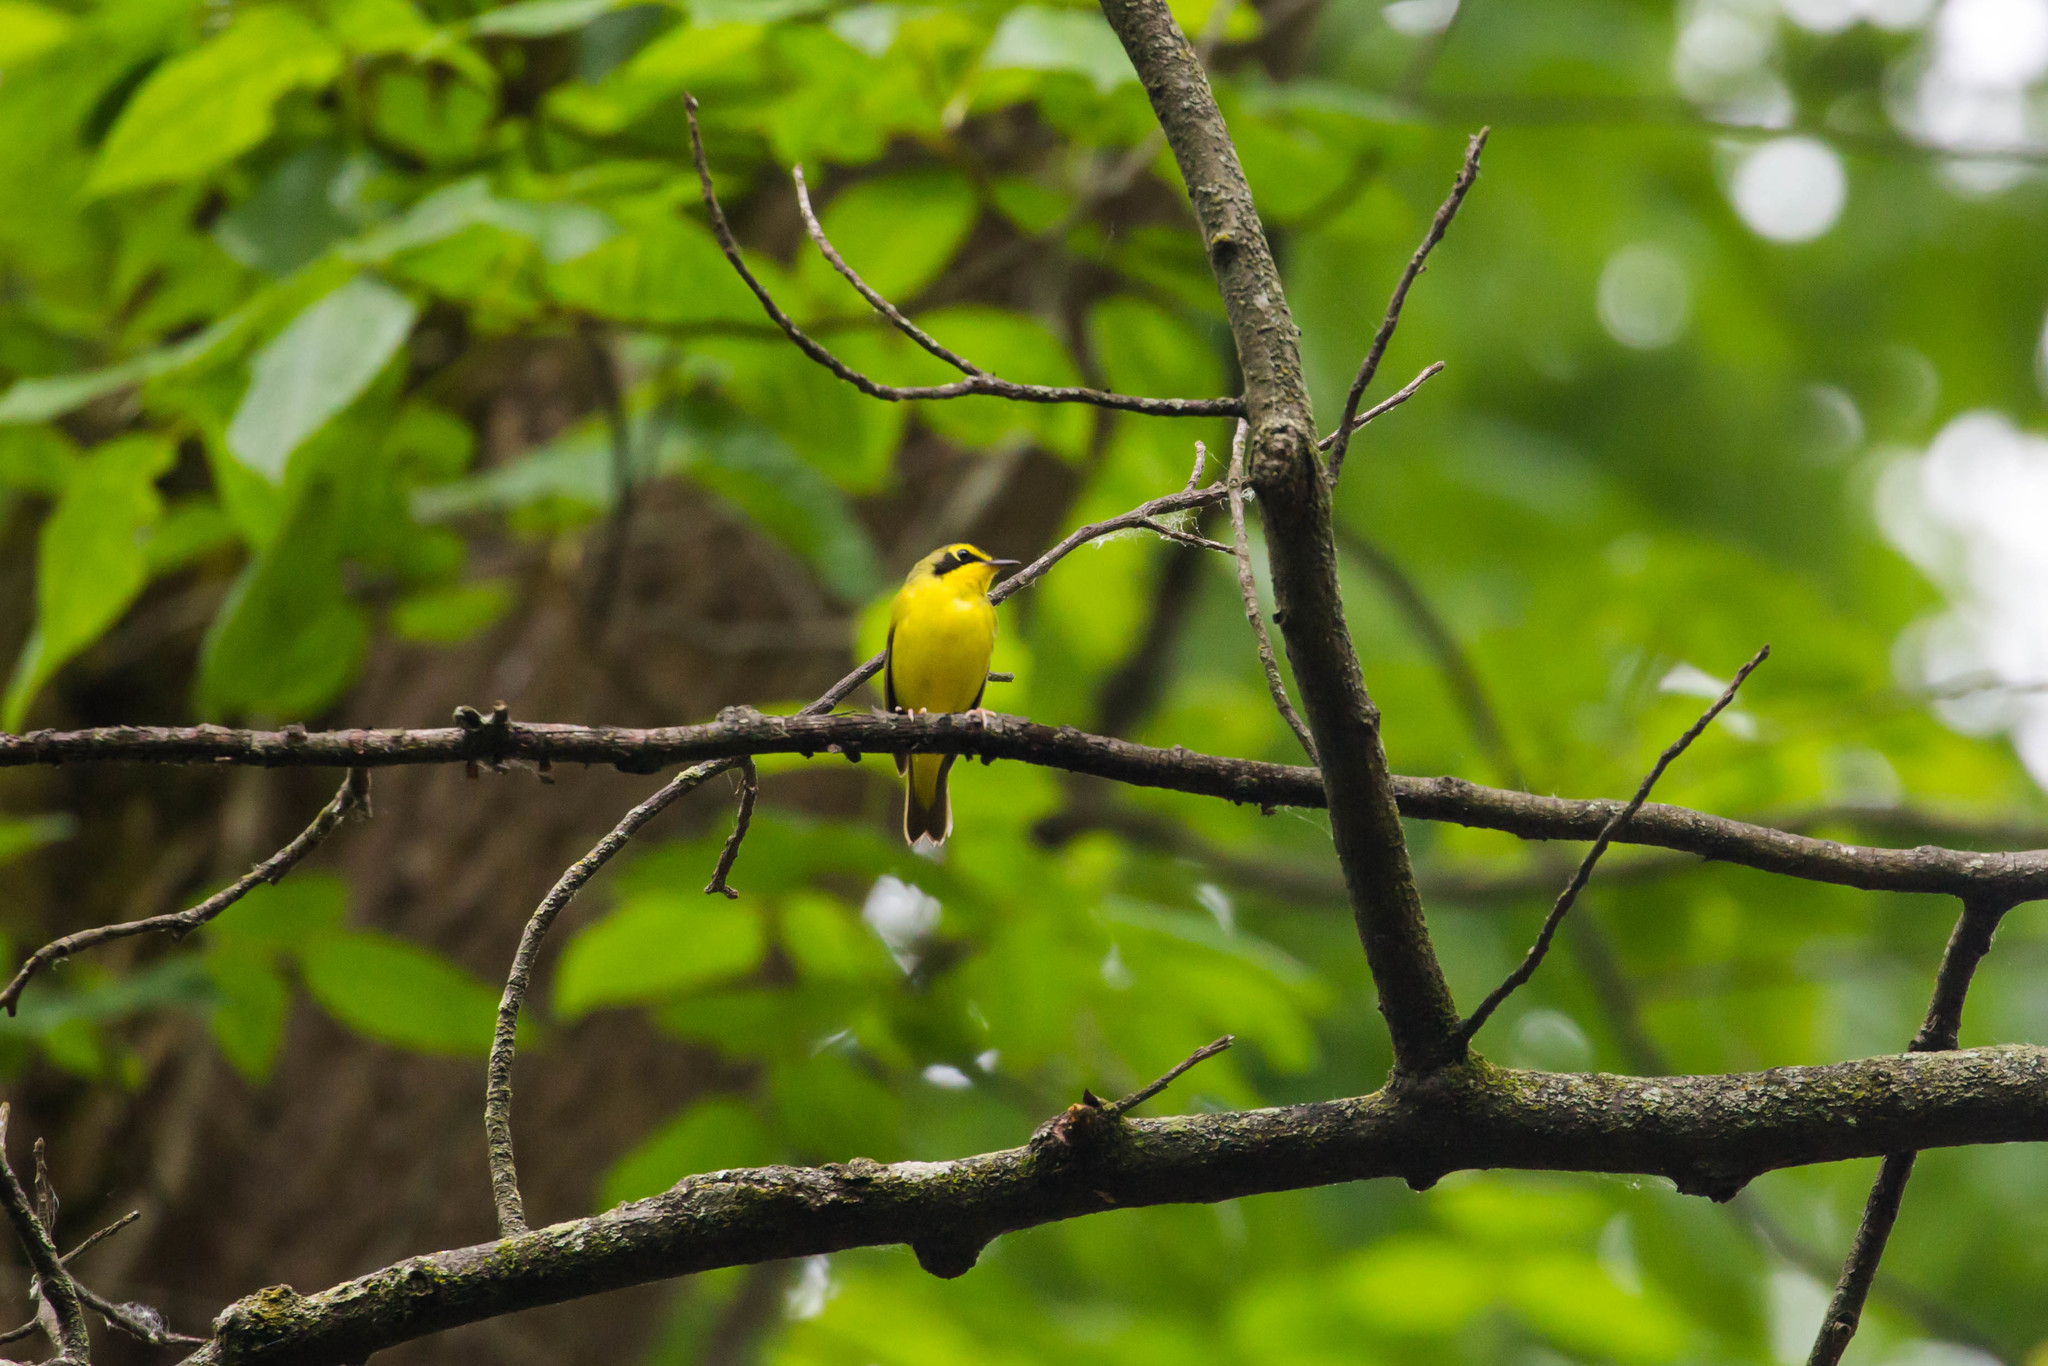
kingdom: Animalia
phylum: Chordata
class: Aves
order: Passeriformes
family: Parulidae
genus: Geothlypis
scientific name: Geothlypis formosa
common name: Kentucky warbler
